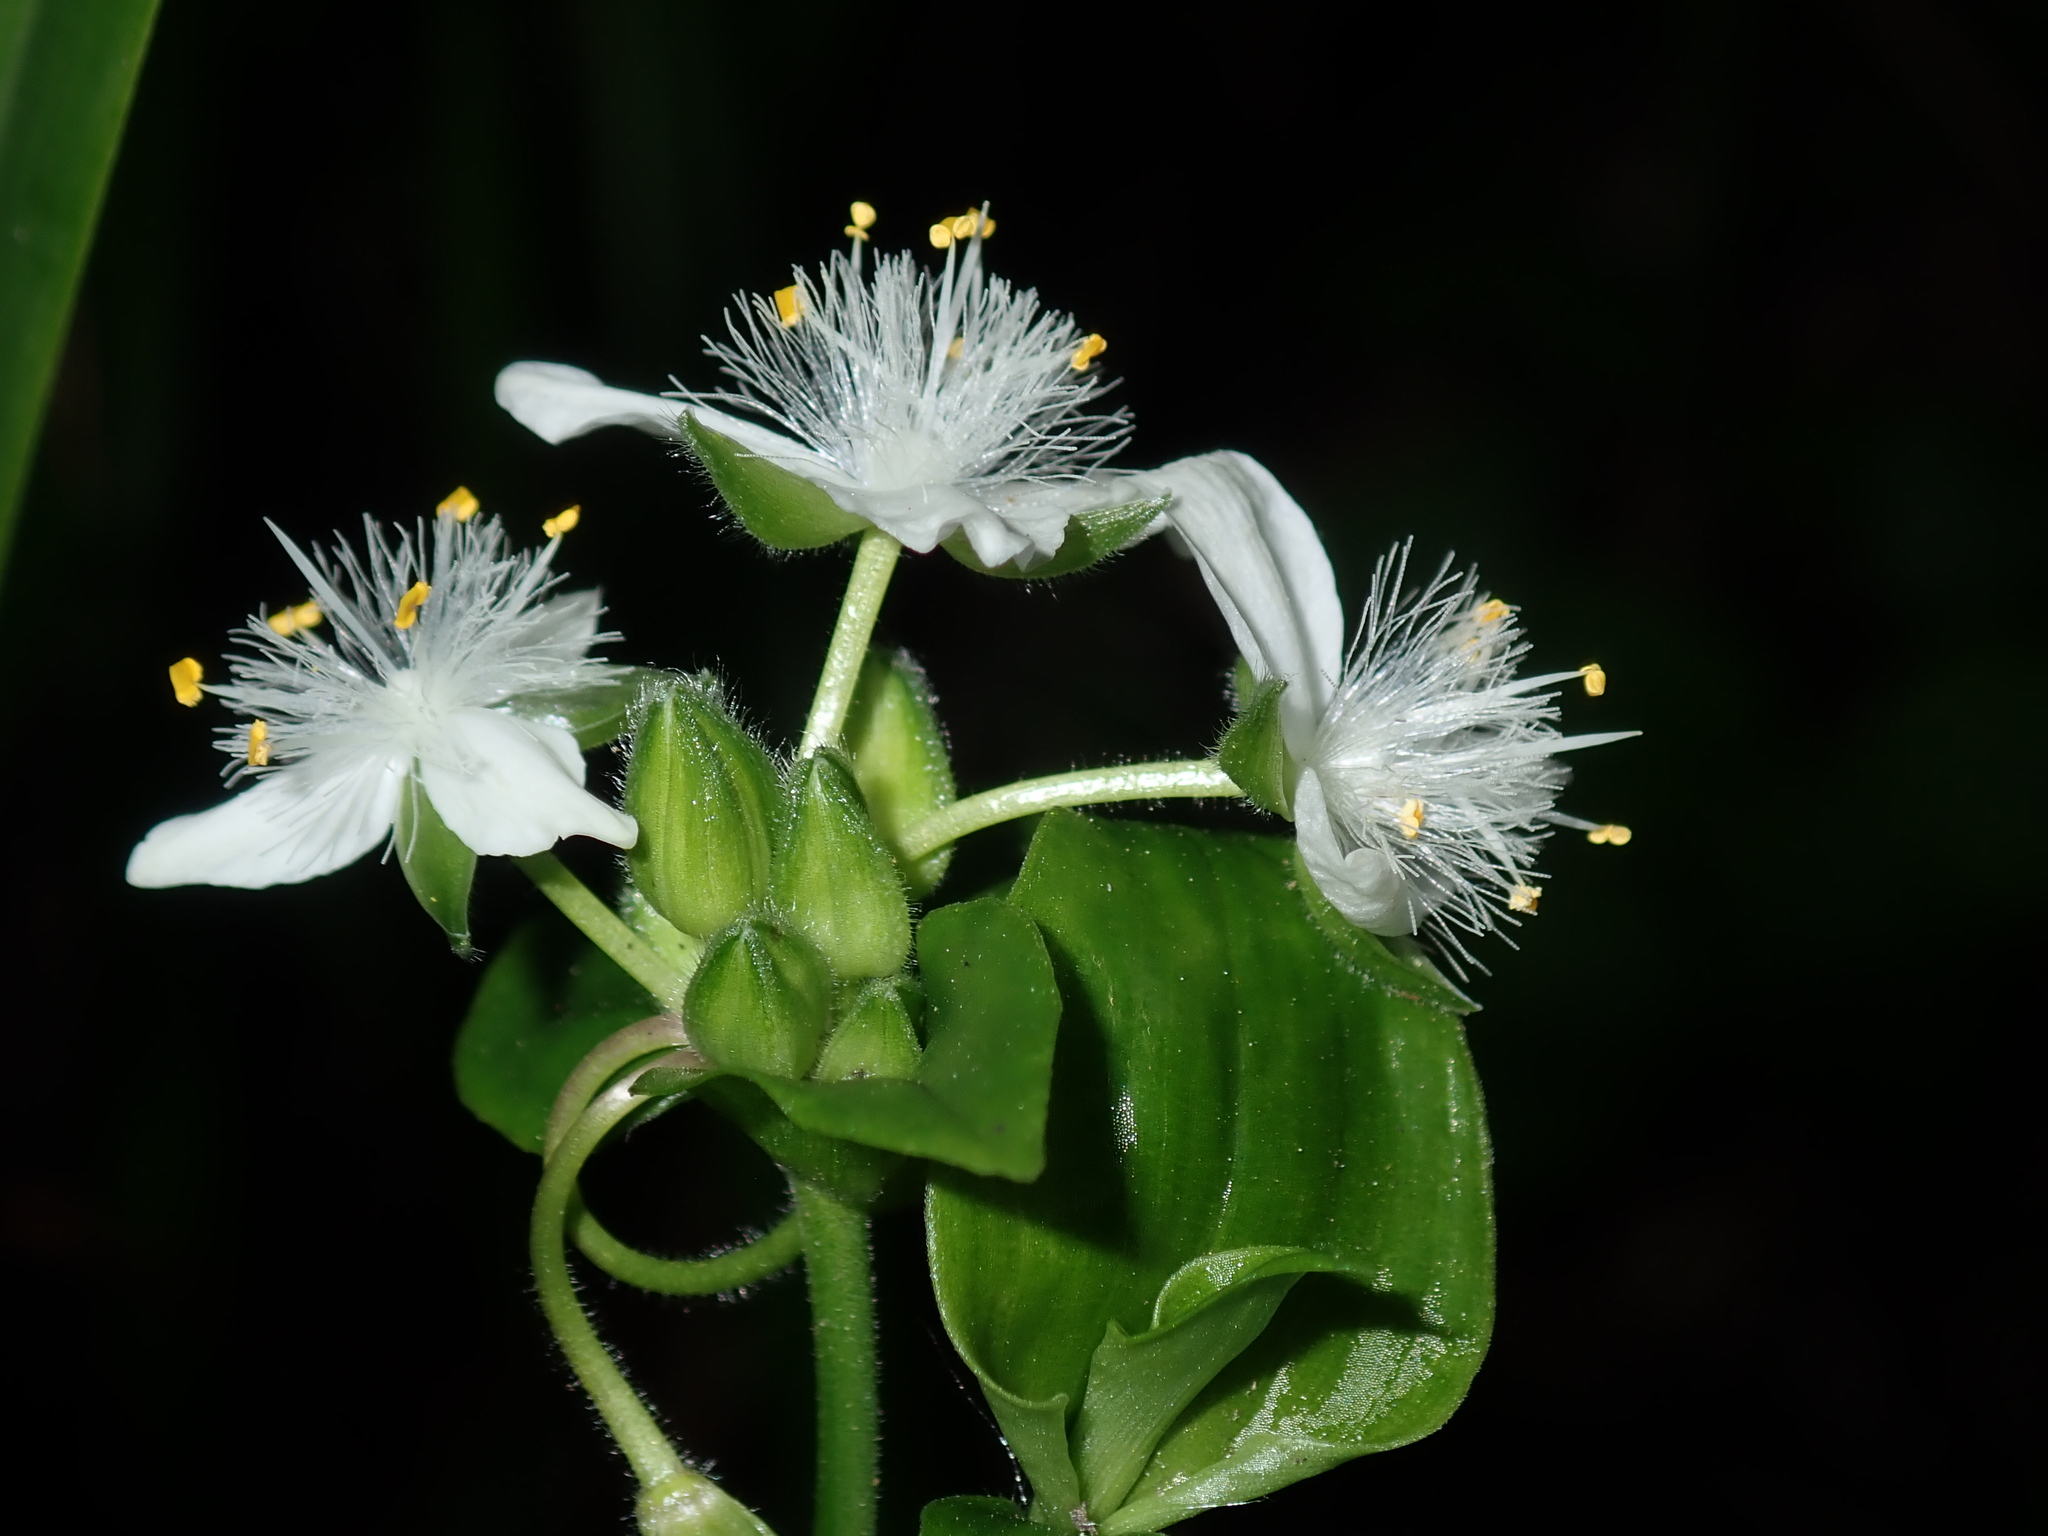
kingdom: Plantae
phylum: Tracheophyta
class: Liliopsida
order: Commelinales
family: Commelinaceae
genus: Tradescantia
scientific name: Tradescantia fluminensis
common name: Wandering-jew
